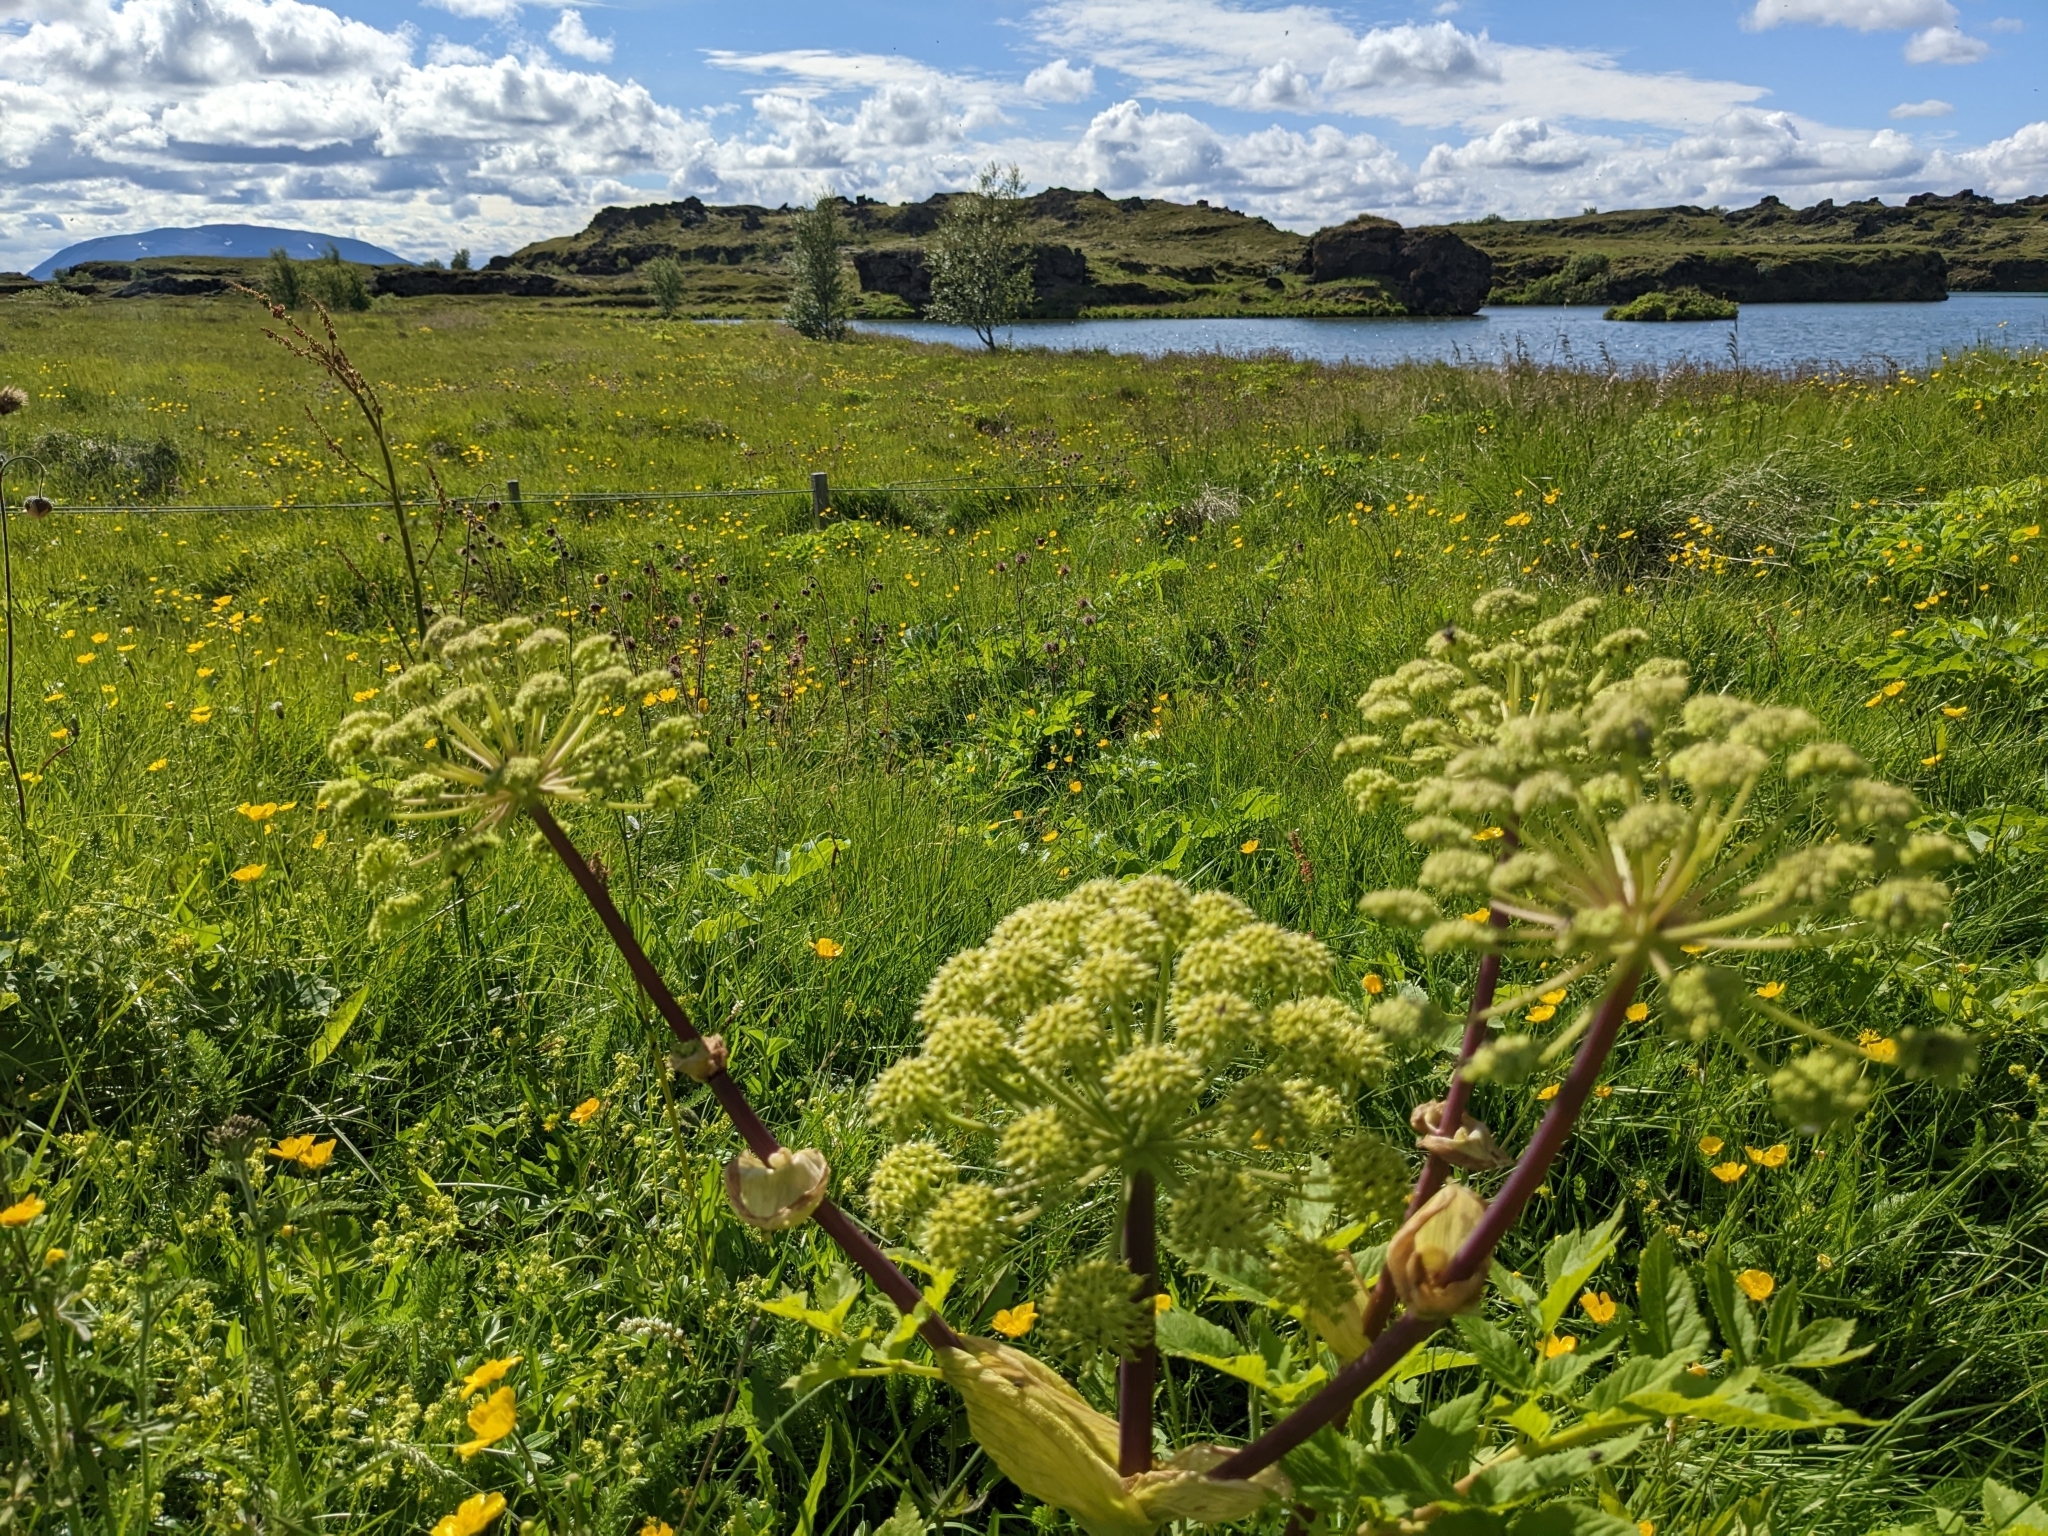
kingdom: Plantae
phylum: Tracheophyta
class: Magnoliopsida
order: Apiales
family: Apiaceae
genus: Angelica
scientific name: Angelica archangelica
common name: Garden angelica
